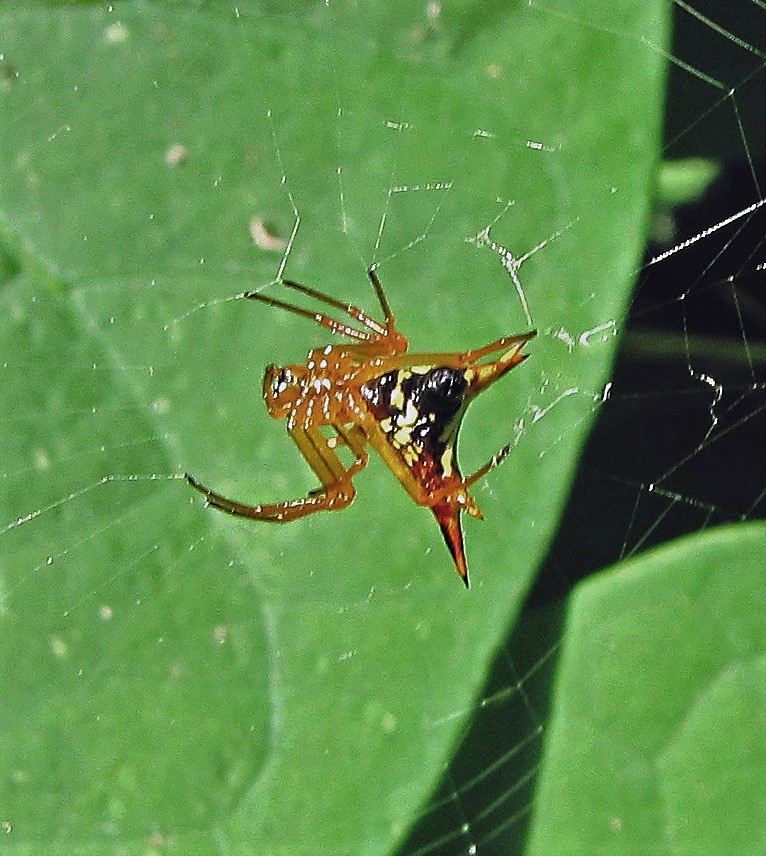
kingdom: Animalia
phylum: Arthropoda
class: Arachnida
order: Araneae
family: Araneidae
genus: Micrathena
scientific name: Micrathena furcata
